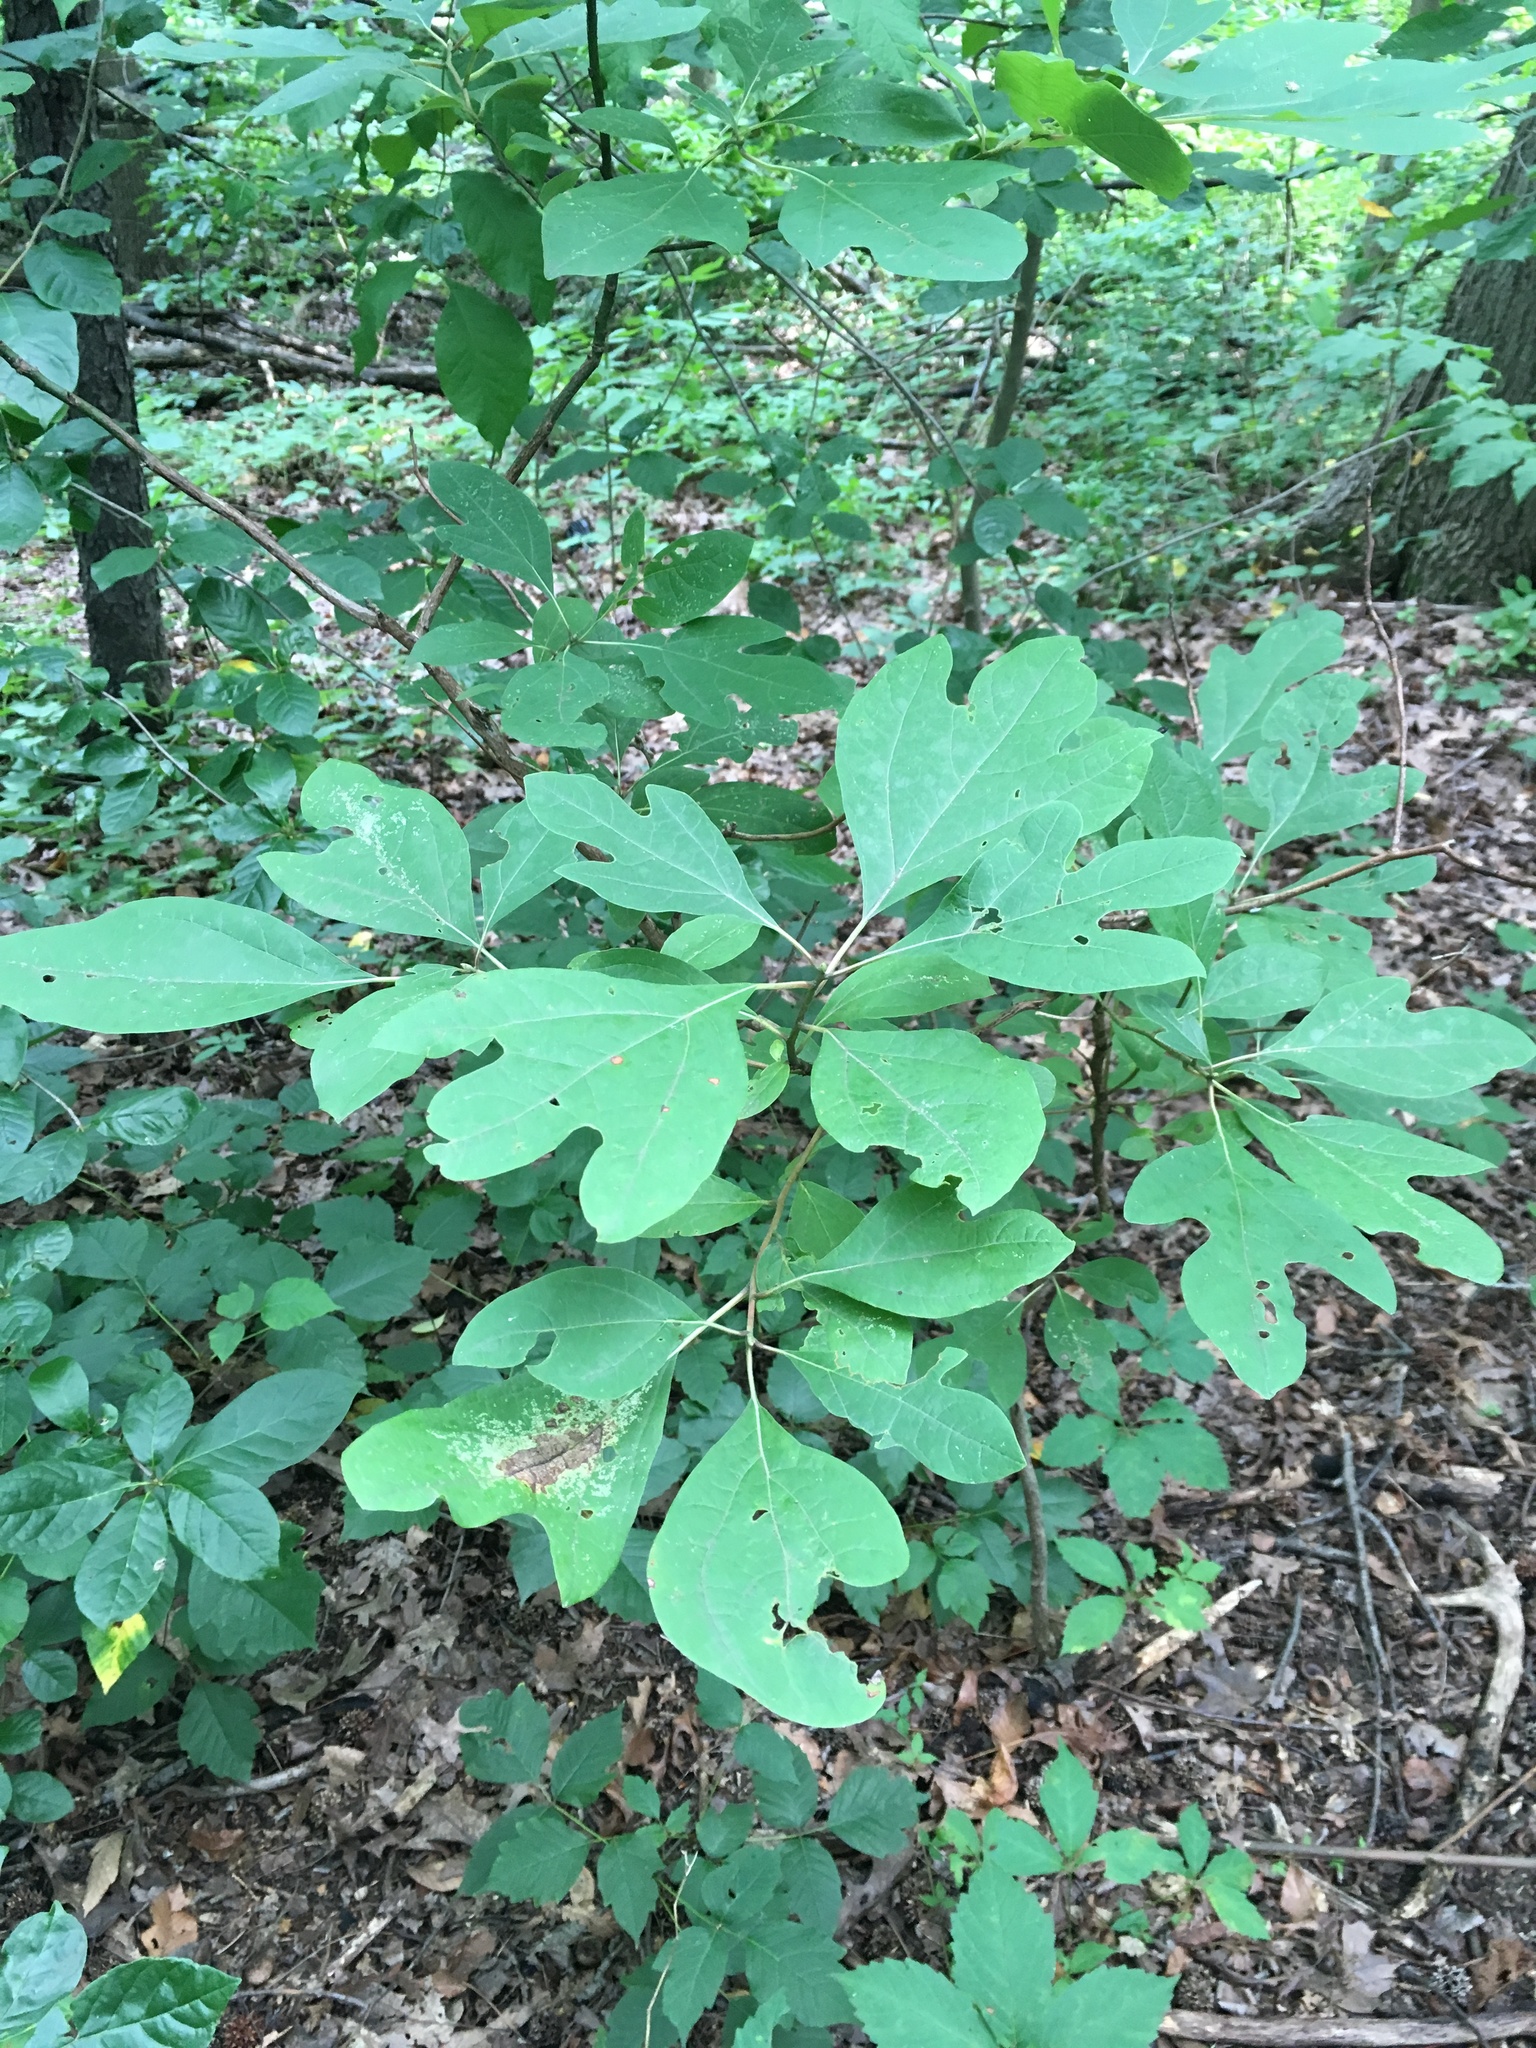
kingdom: Plantae
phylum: Tracheophyta
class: Magnoliopsida
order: Laurales
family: Lauraceae
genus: Sassafras
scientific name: Sassafras albidum
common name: Sassafras
